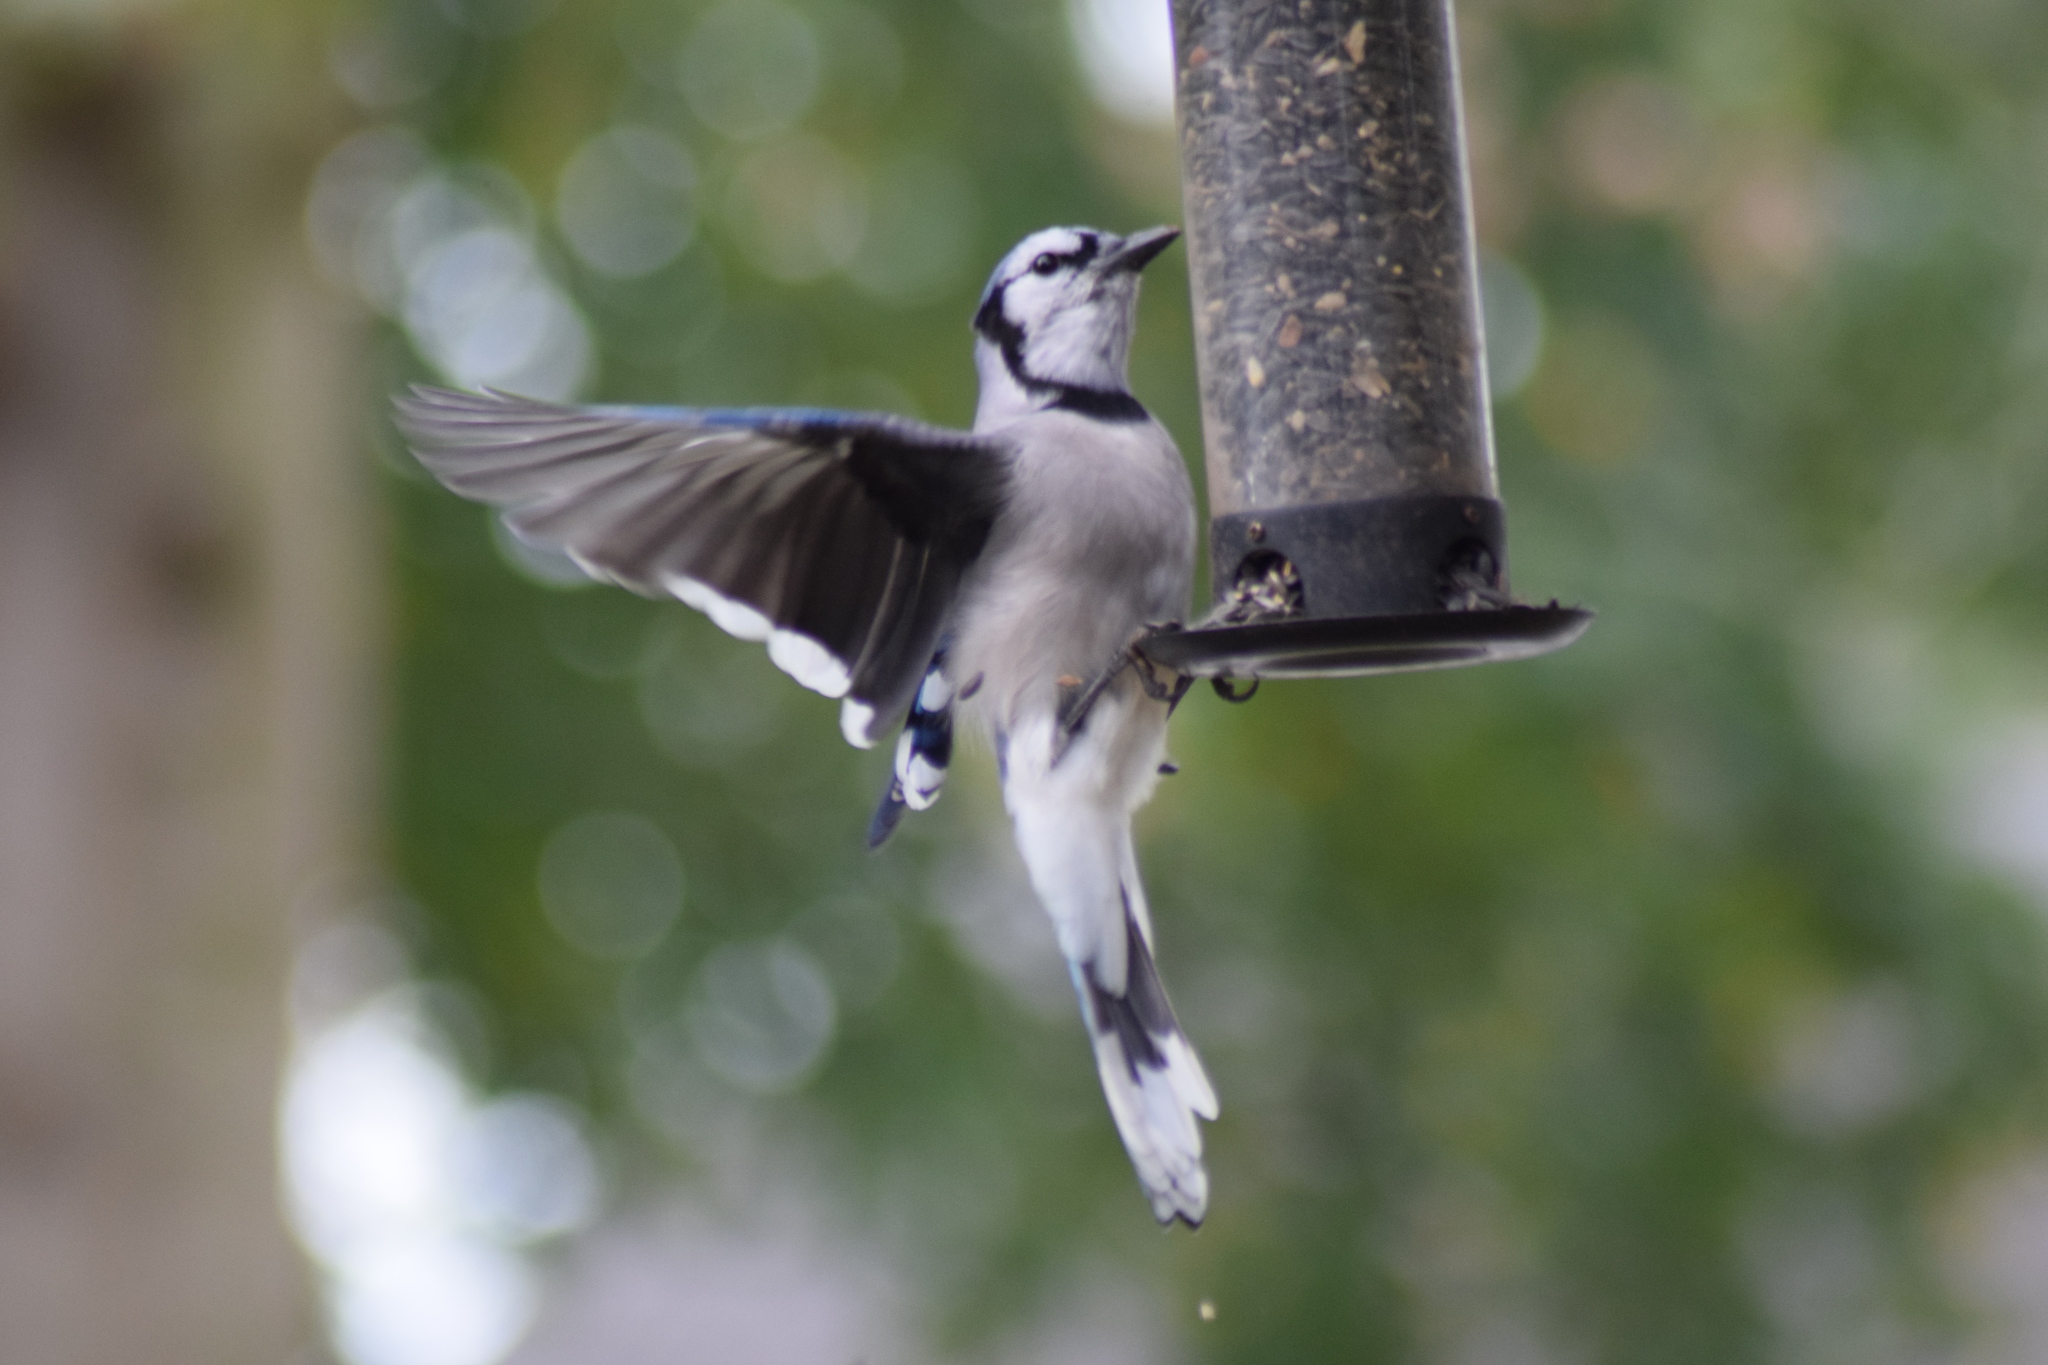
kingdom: Animalia
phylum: Chordata
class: Aves
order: Passeriformes
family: Corvidae
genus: Cyanocitta
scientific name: Cyanocitta cristata
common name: Blue jay
